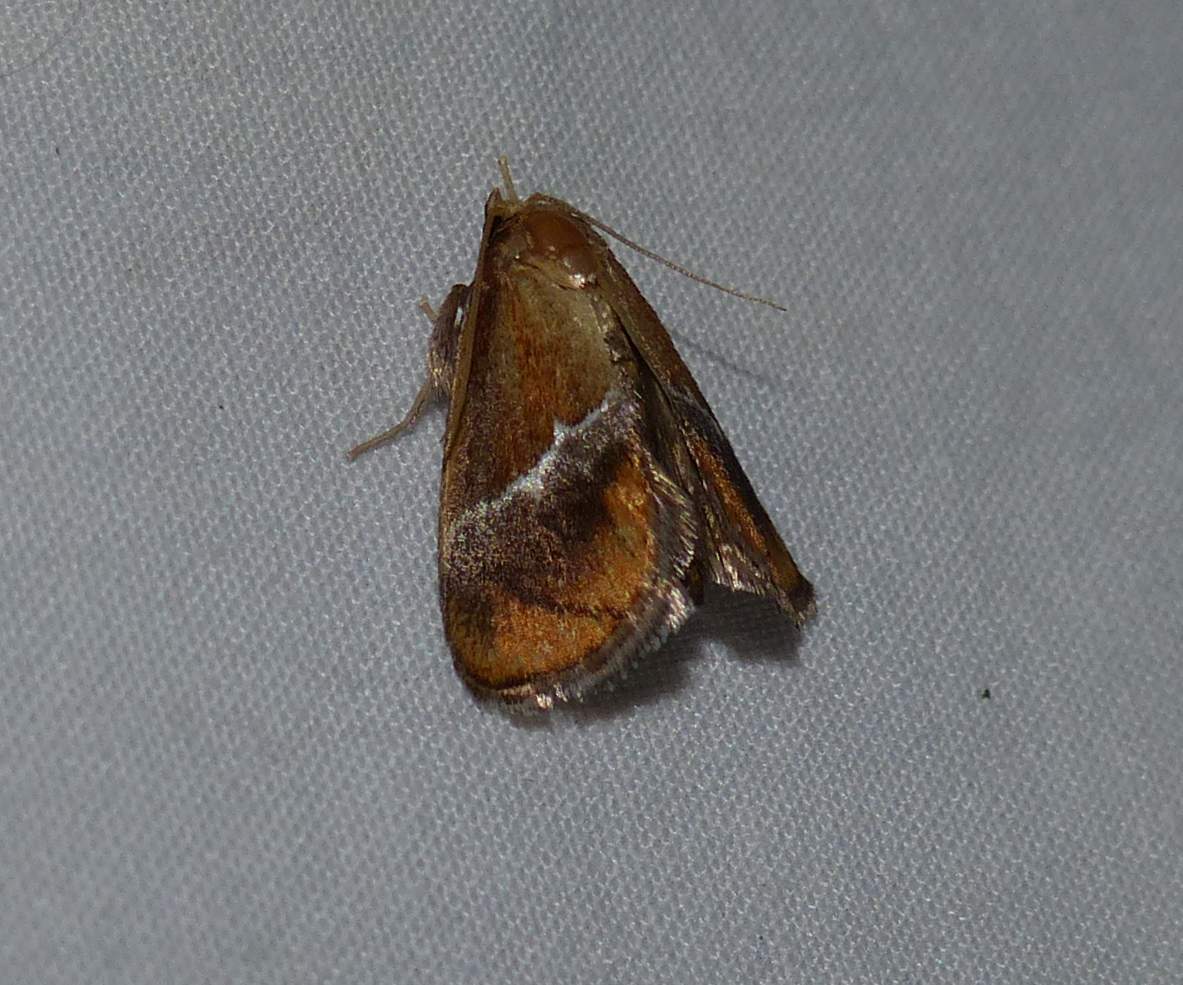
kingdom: Animalia
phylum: Arthropoda
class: Insecta
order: Lepidoptera
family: Limacodidae
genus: Lithacodes
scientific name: Lithacodes fasciola
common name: Yellow-shouldered slug moth
